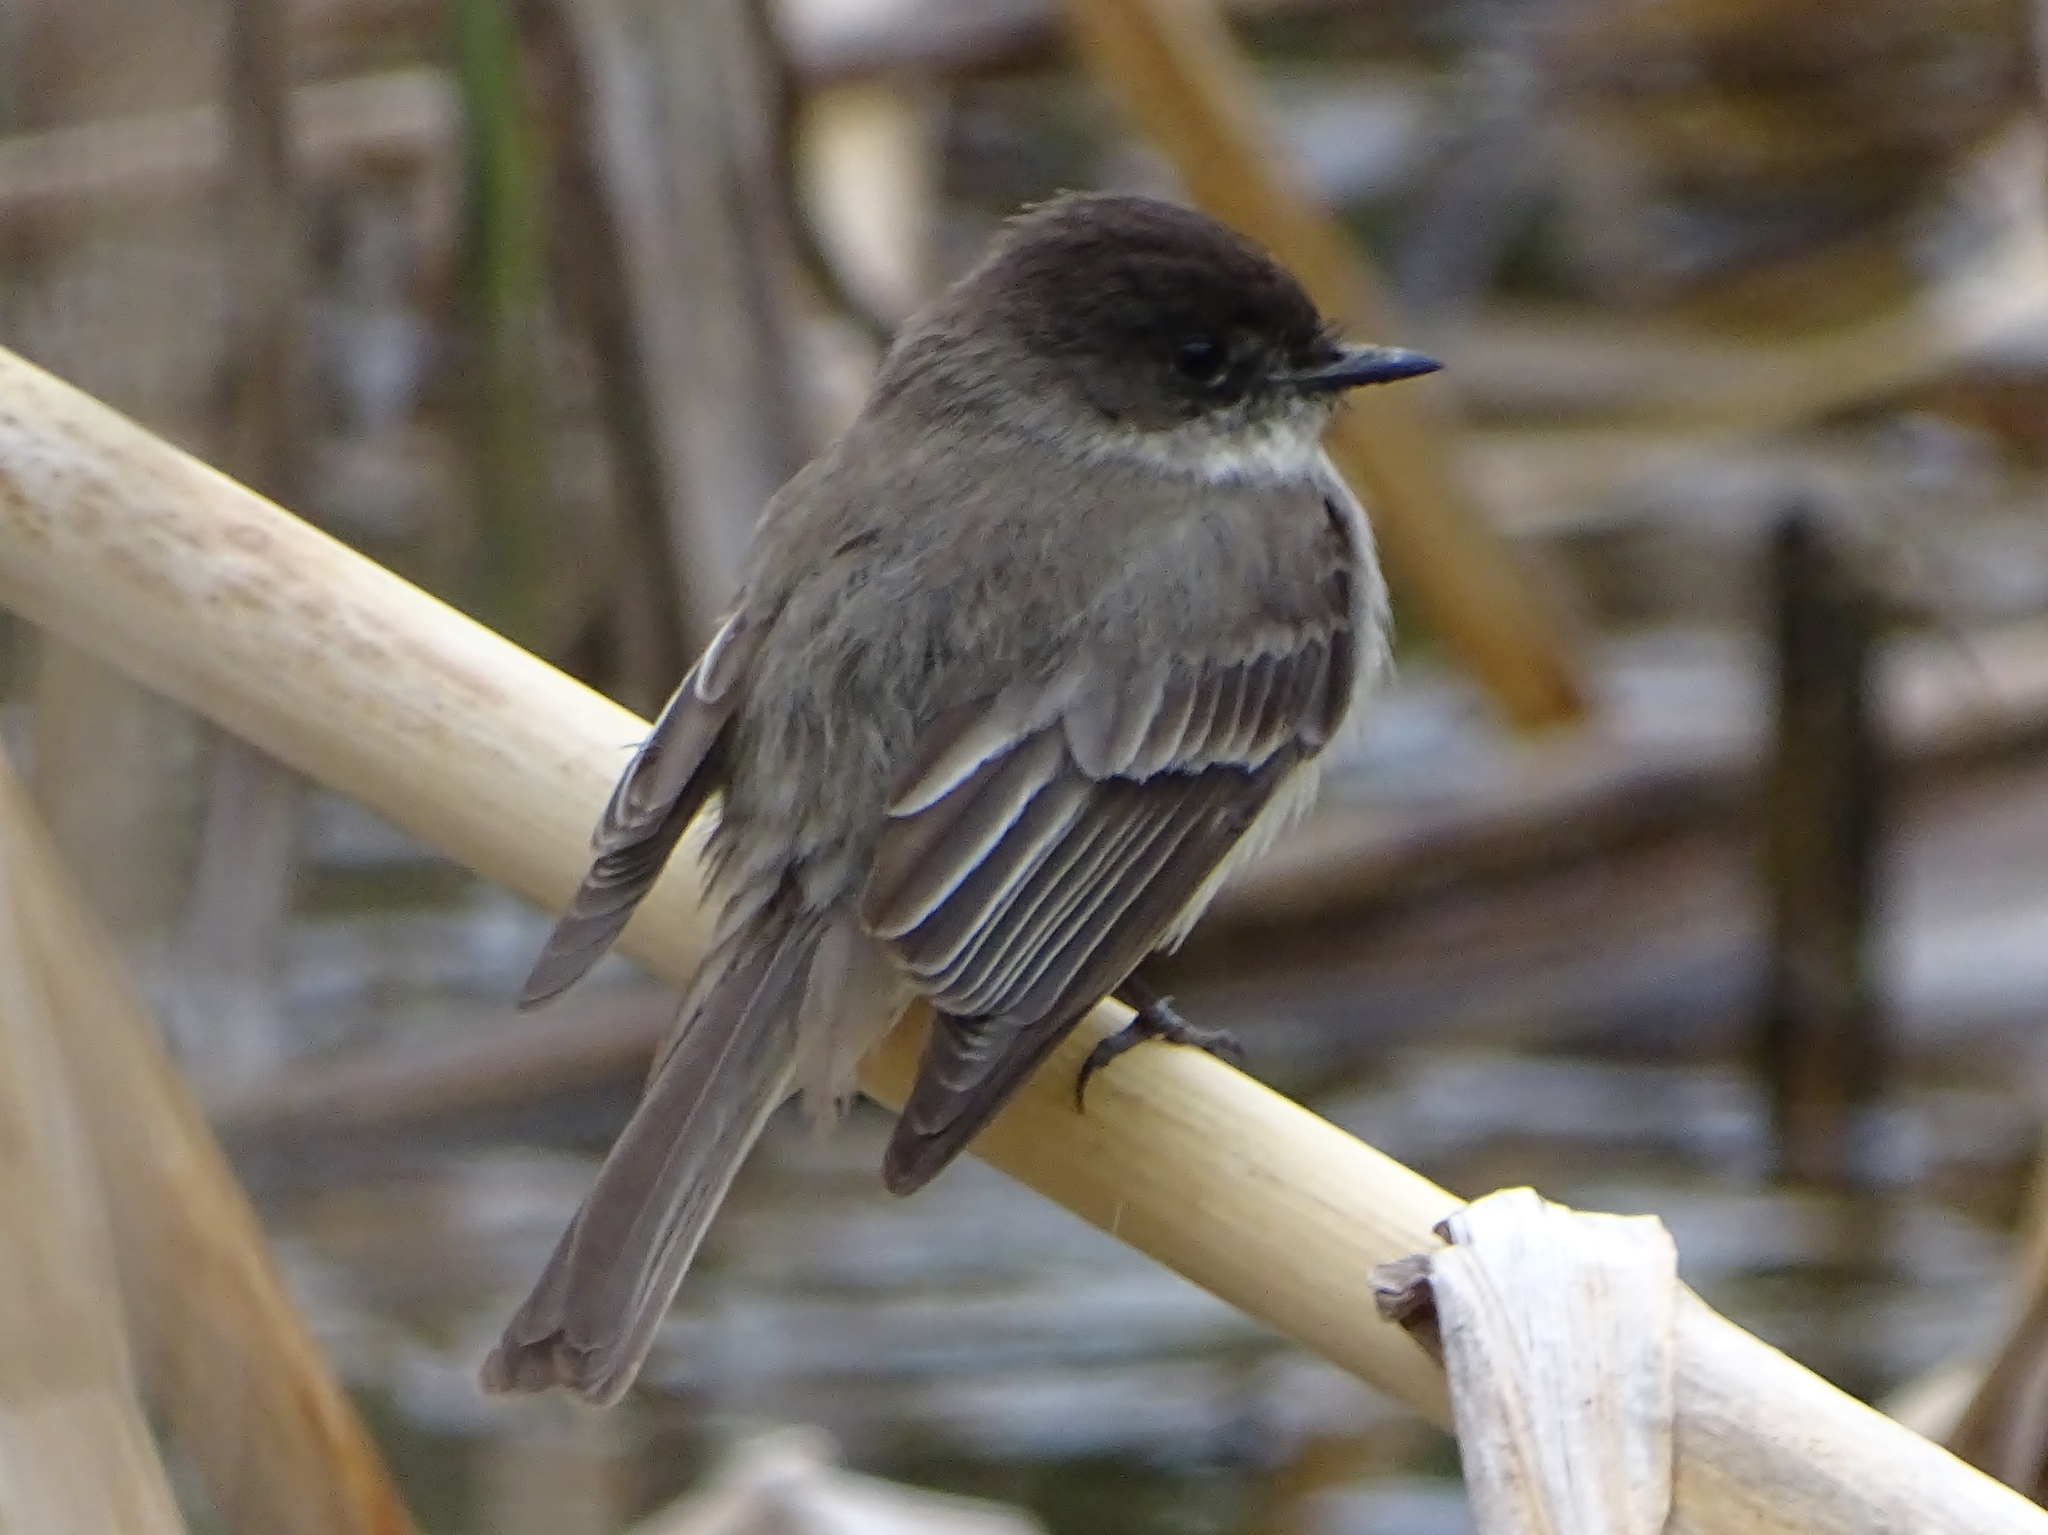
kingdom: Animalia
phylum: Chordata
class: Aves
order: Passeriformes
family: Tyrannidae
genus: Sayornis
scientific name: Sayornis phoebe
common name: Eastern phoebe
